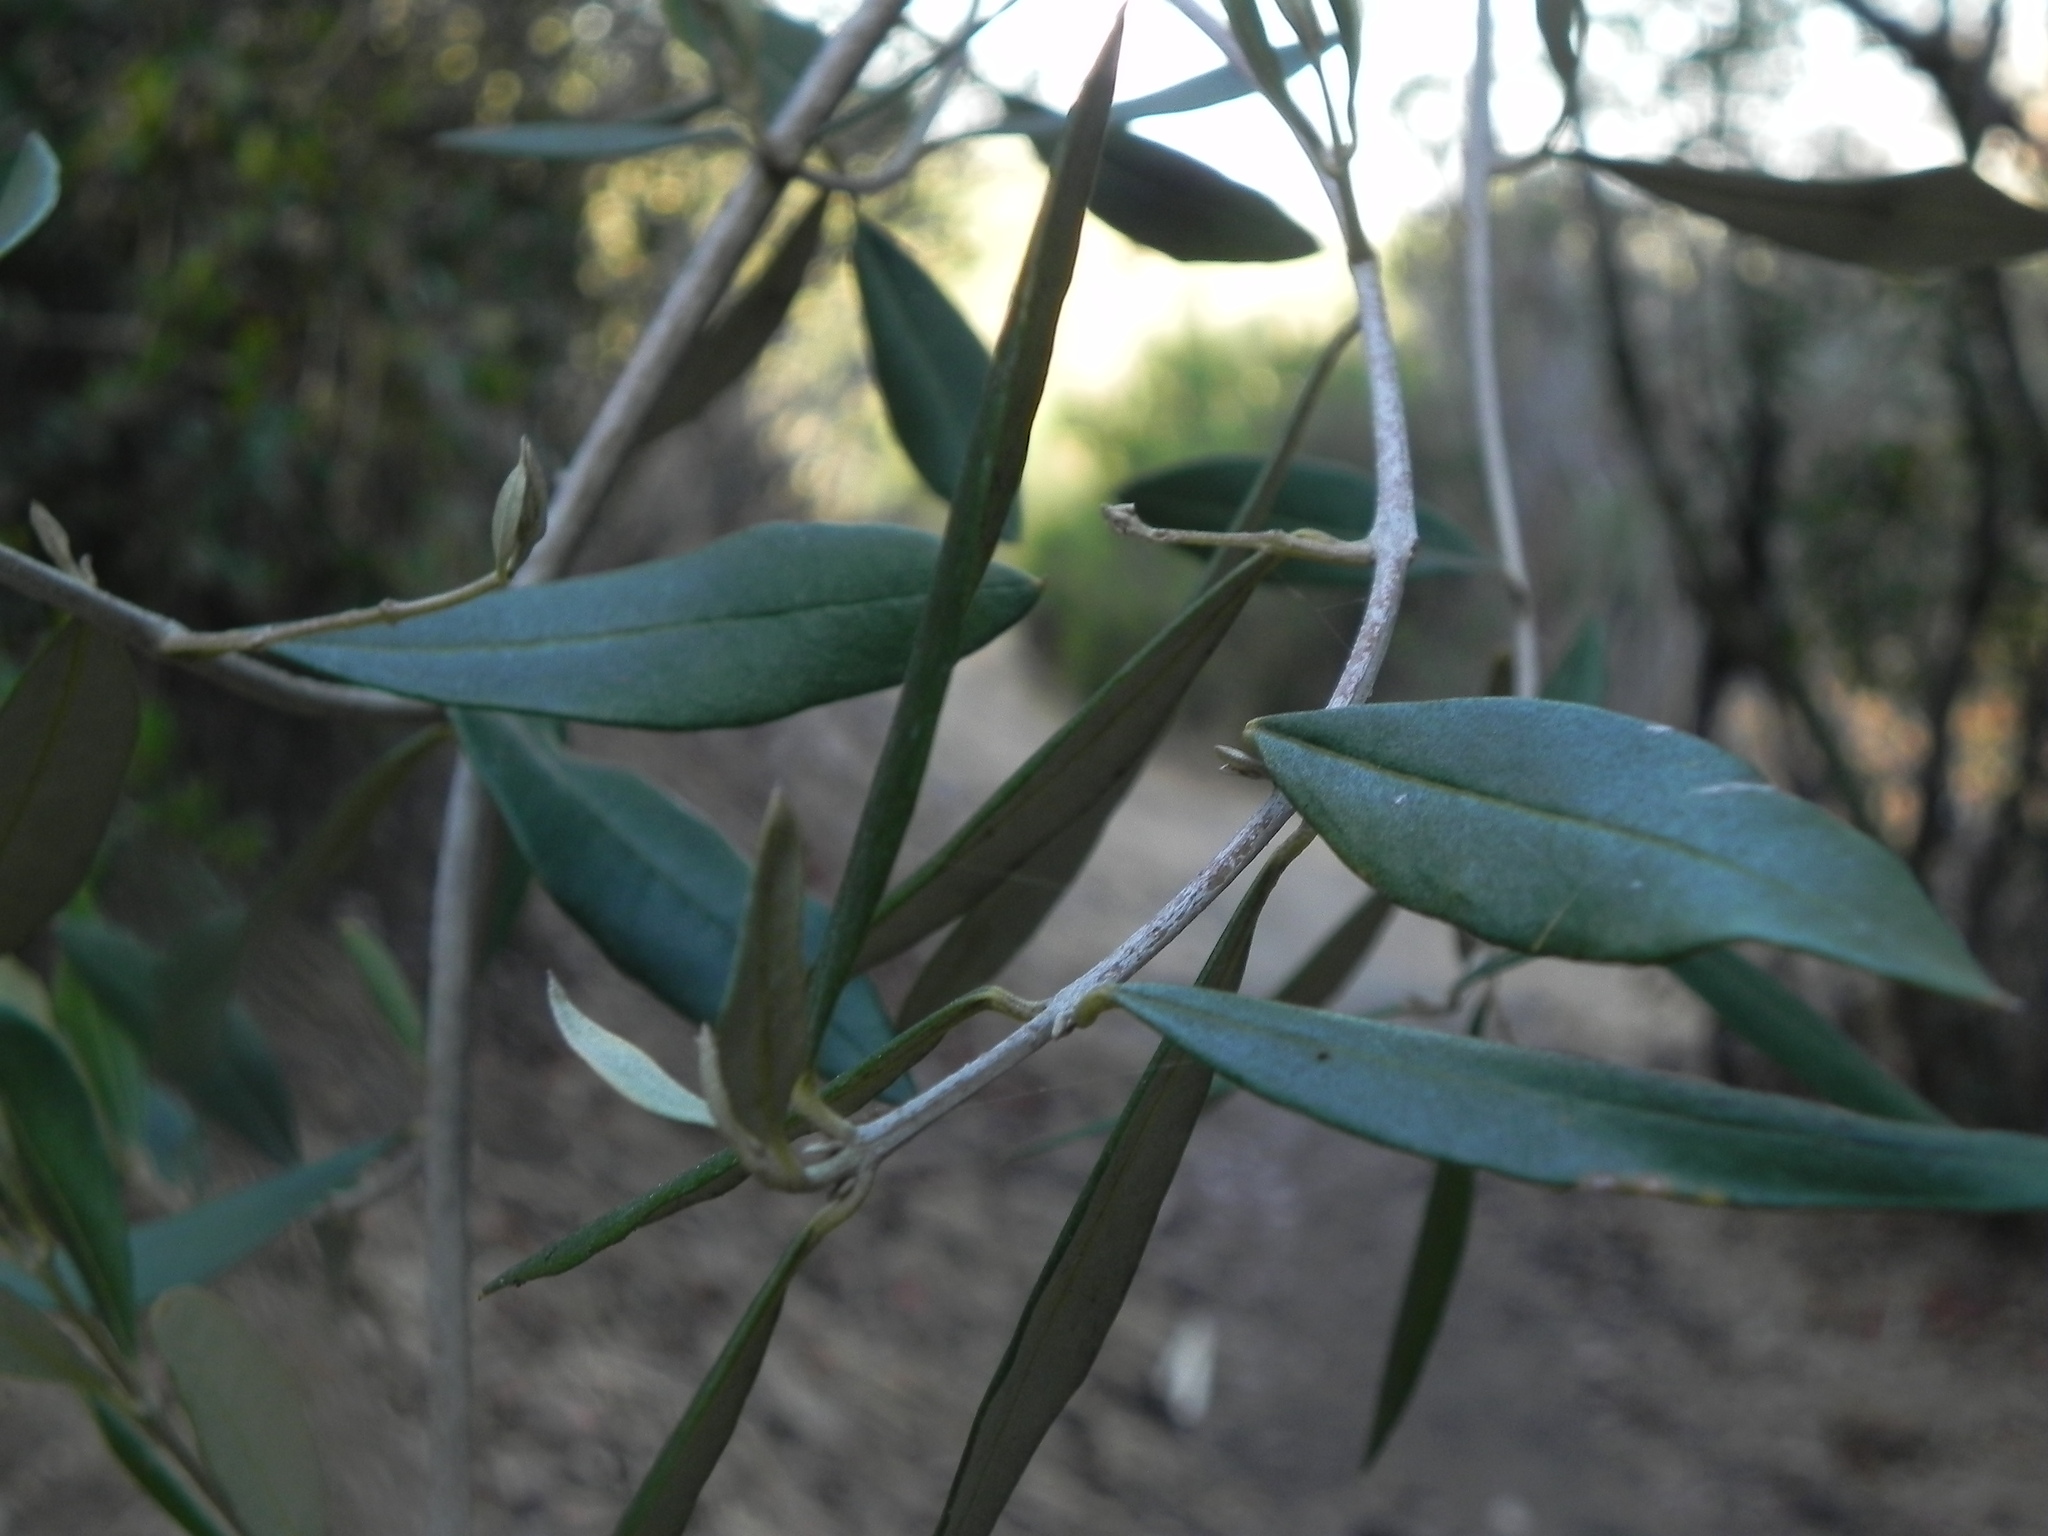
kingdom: Plantae
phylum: Tracheophyta
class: Magnoliopsida
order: Lamiales
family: Oleaceae
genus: Olea
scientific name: Olea europaea
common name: Olive
